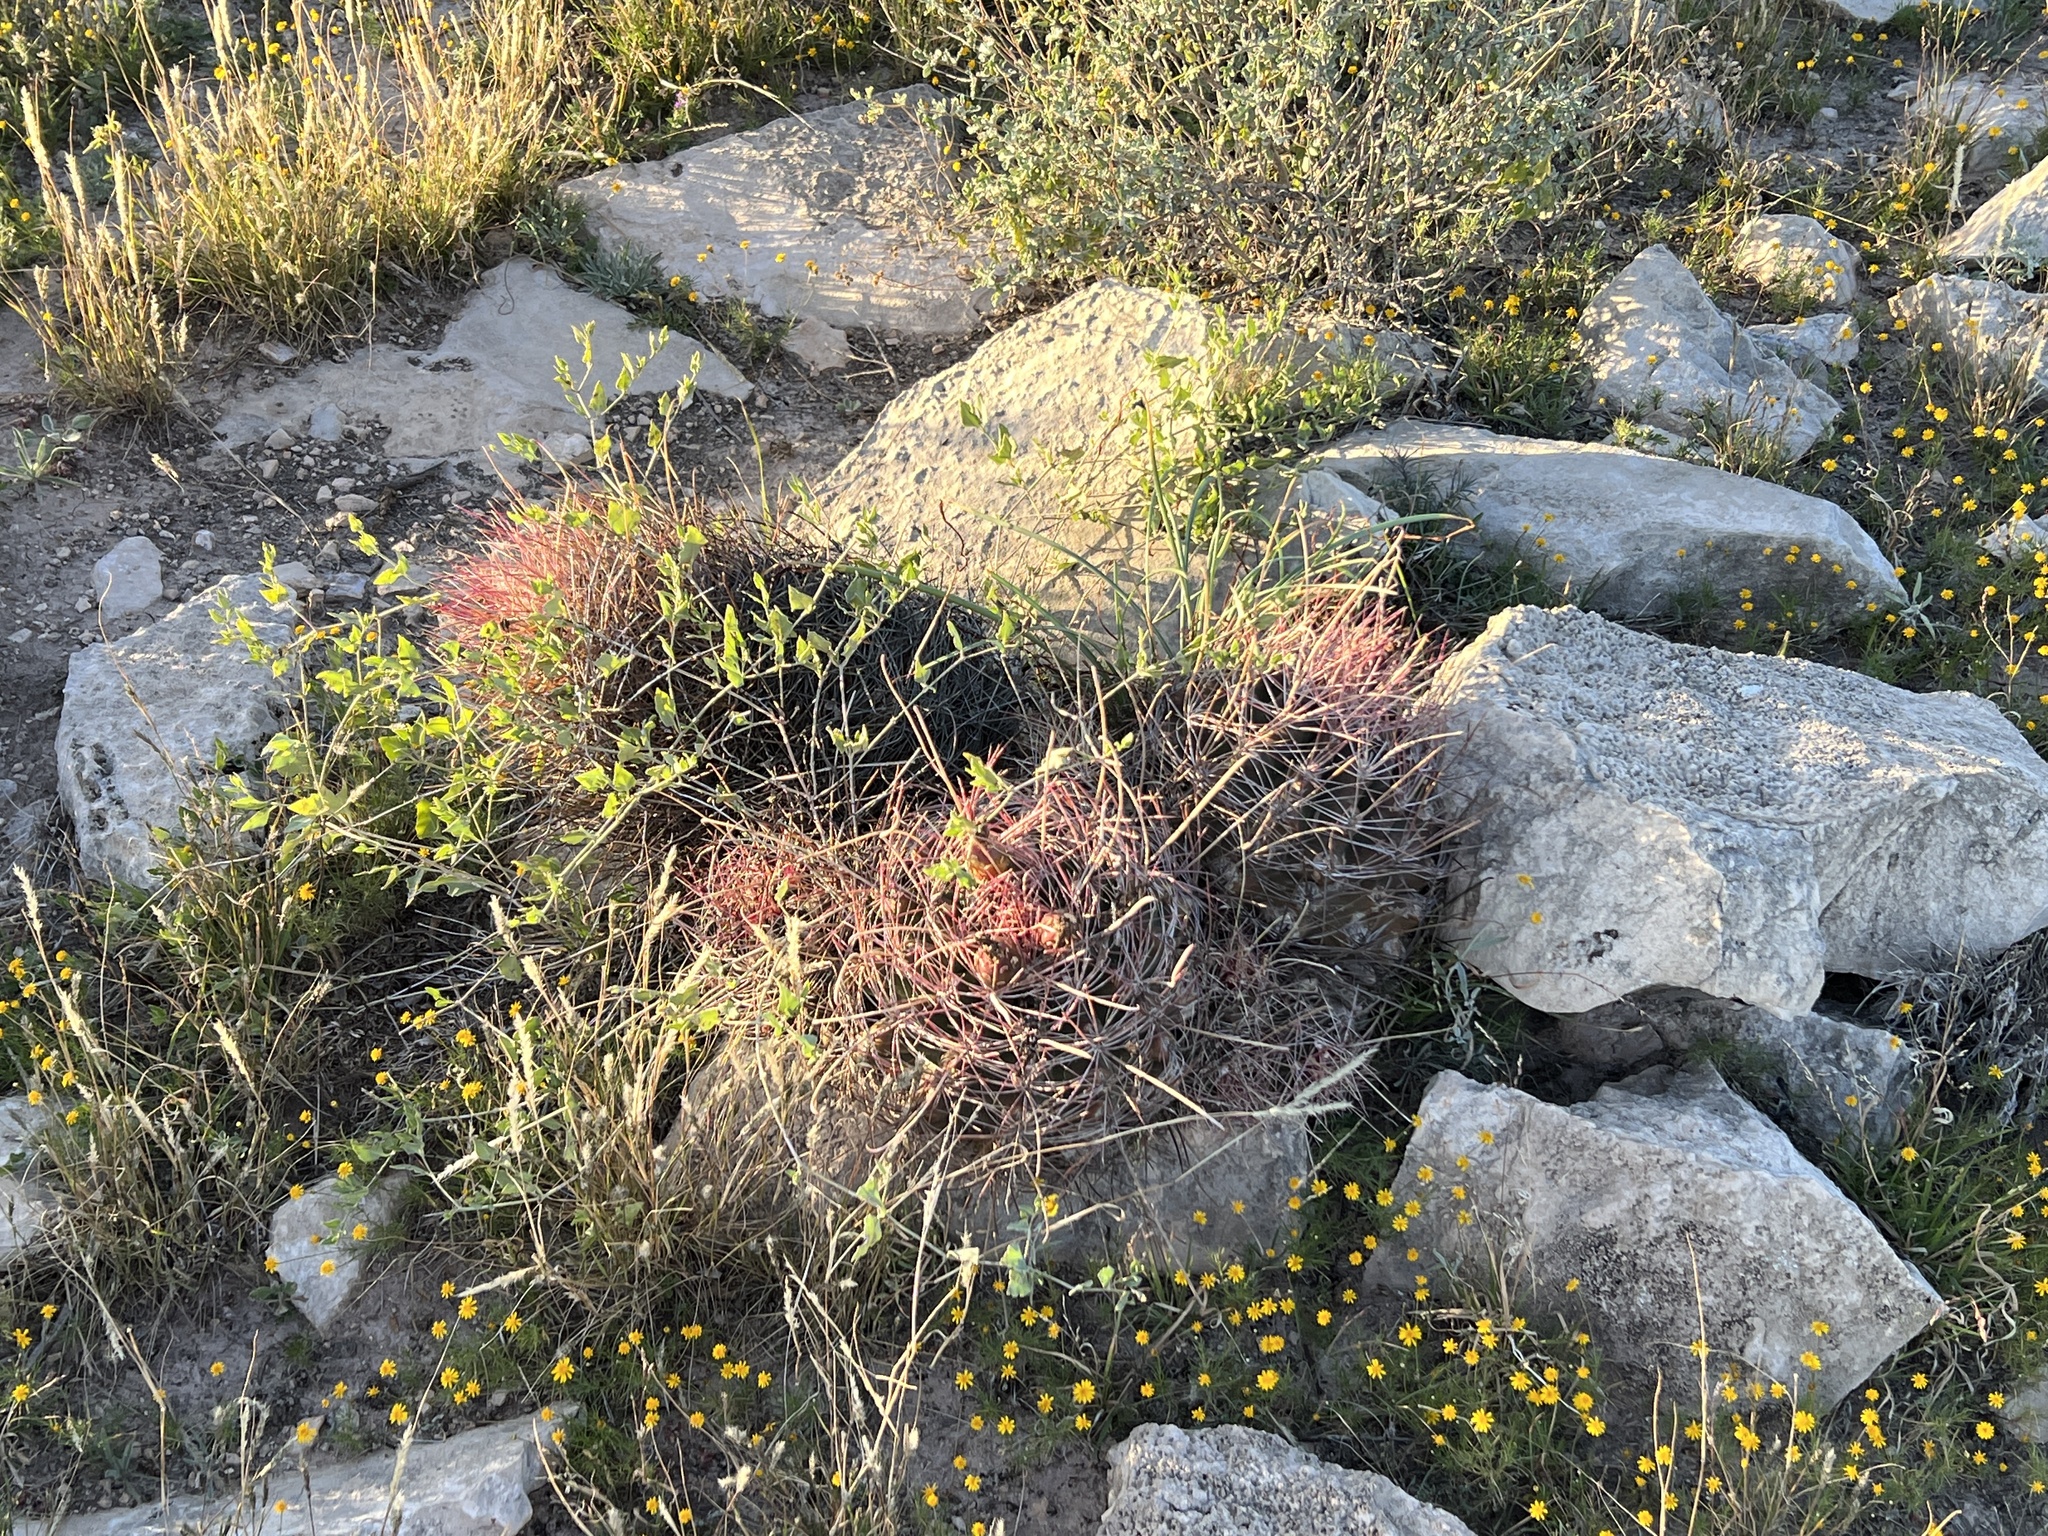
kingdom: Plantae
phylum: Tracheophyta
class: Magnoliopsida
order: Caryophyllales
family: Cactaceae
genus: Bisnaga
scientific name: Bisnaga hamatacantha
